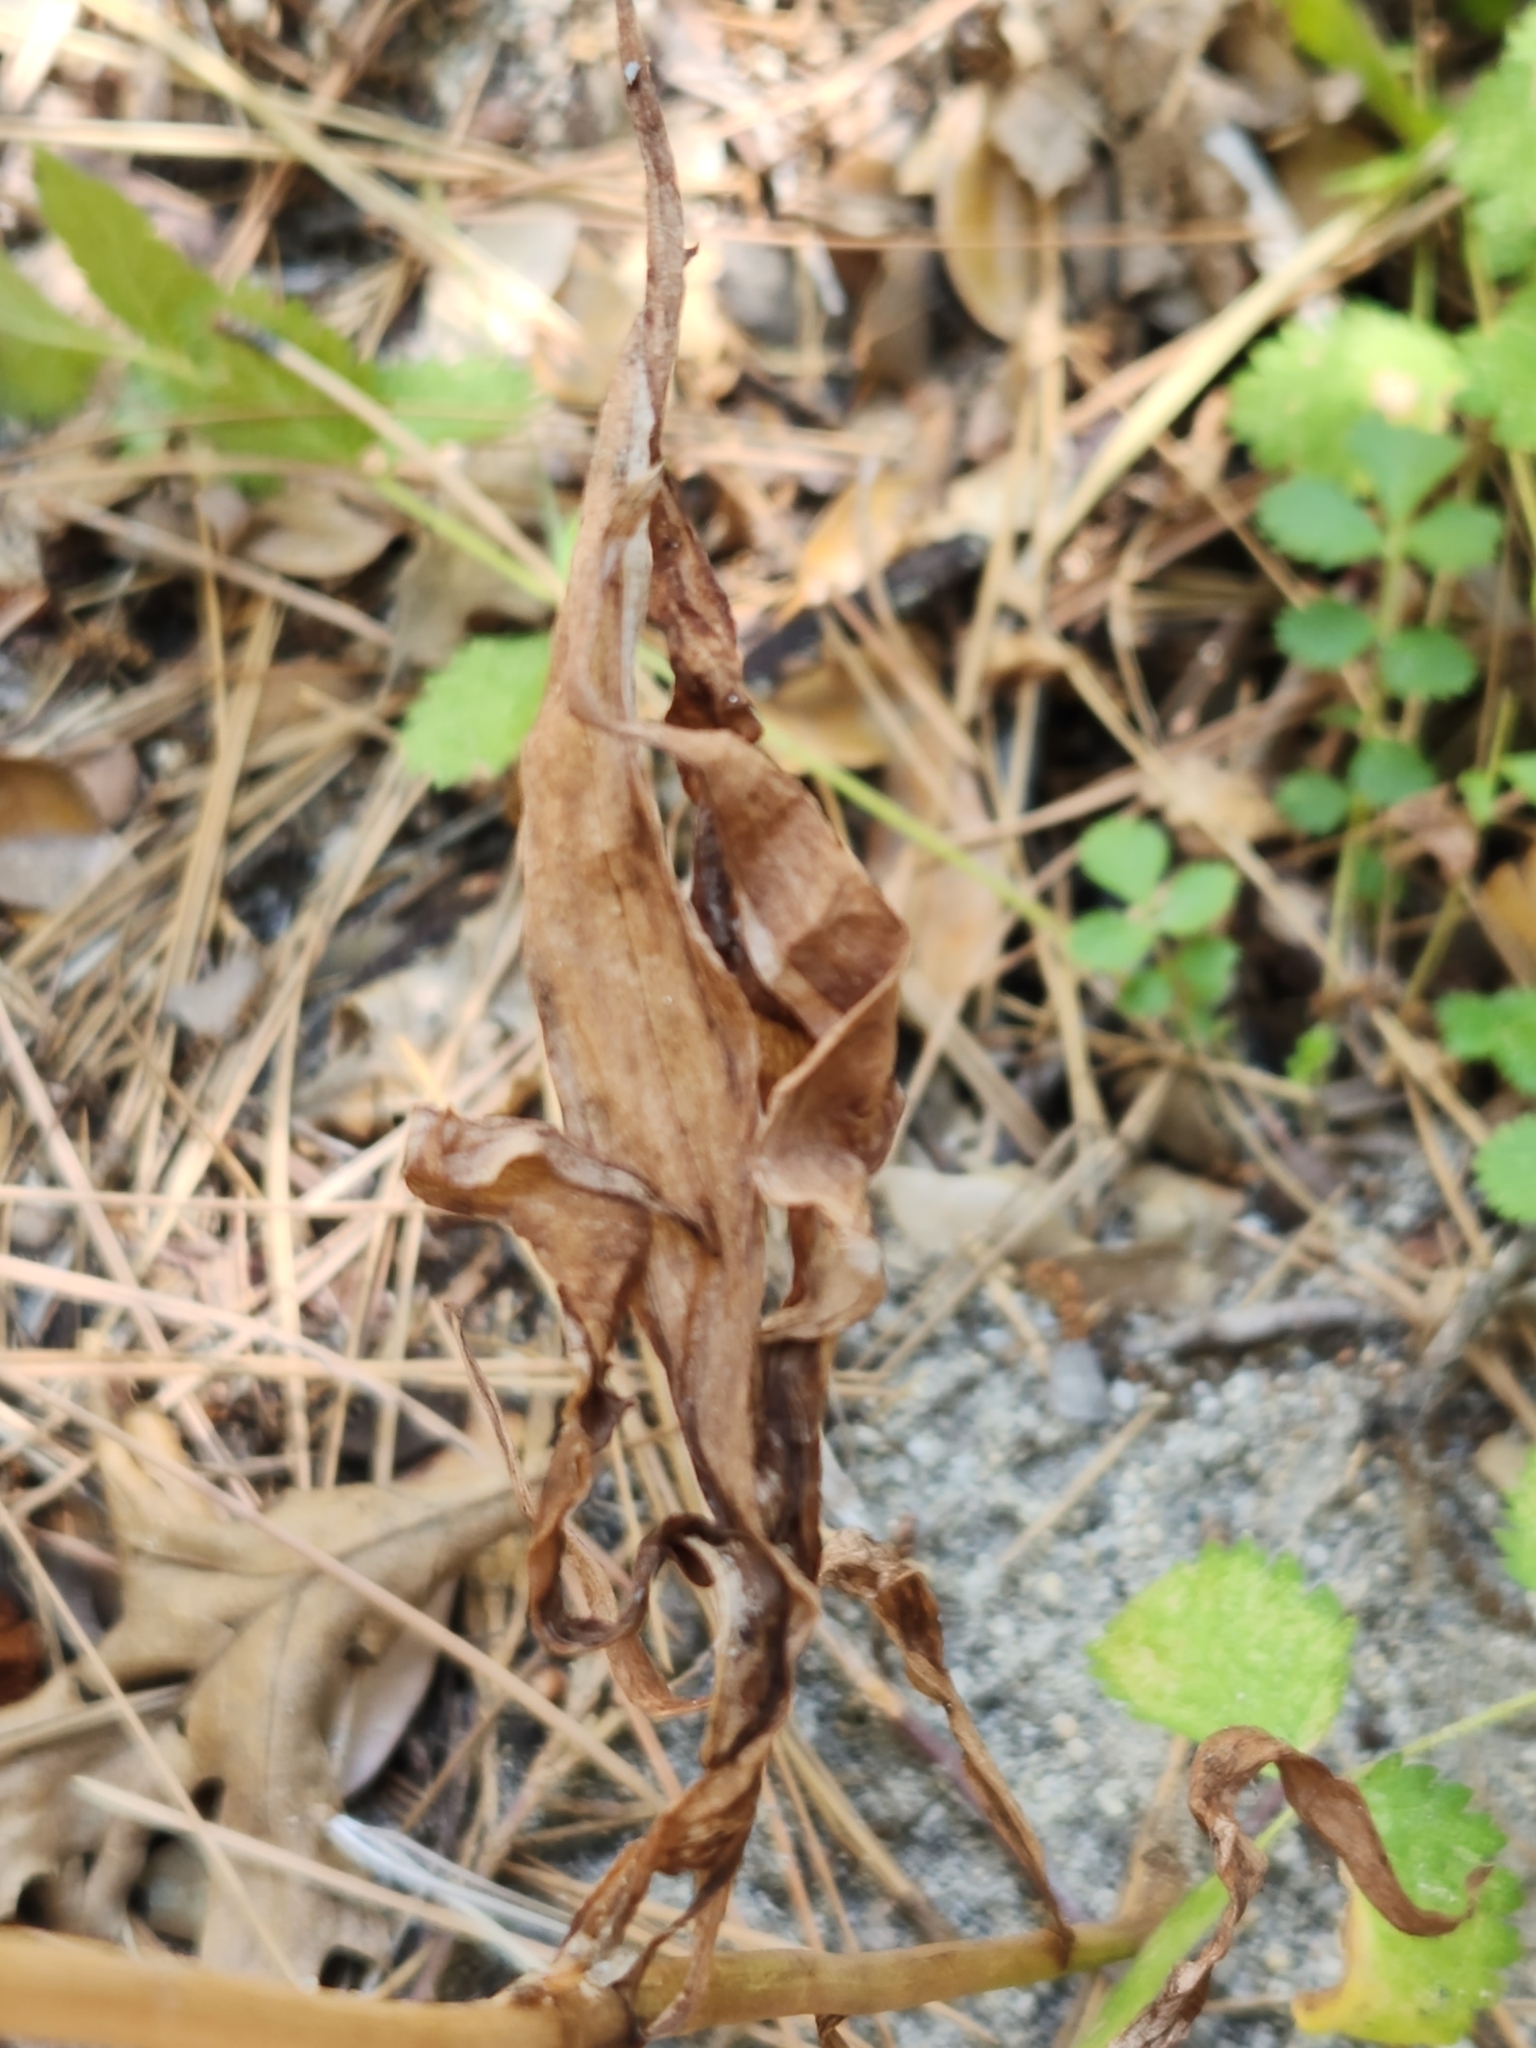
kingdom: Plantae
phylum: Tracheophyta
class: Liliopsida
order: Liliales
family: Liliaceae
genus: Lilium
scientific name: Lilium parryi
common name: Lemon lily
